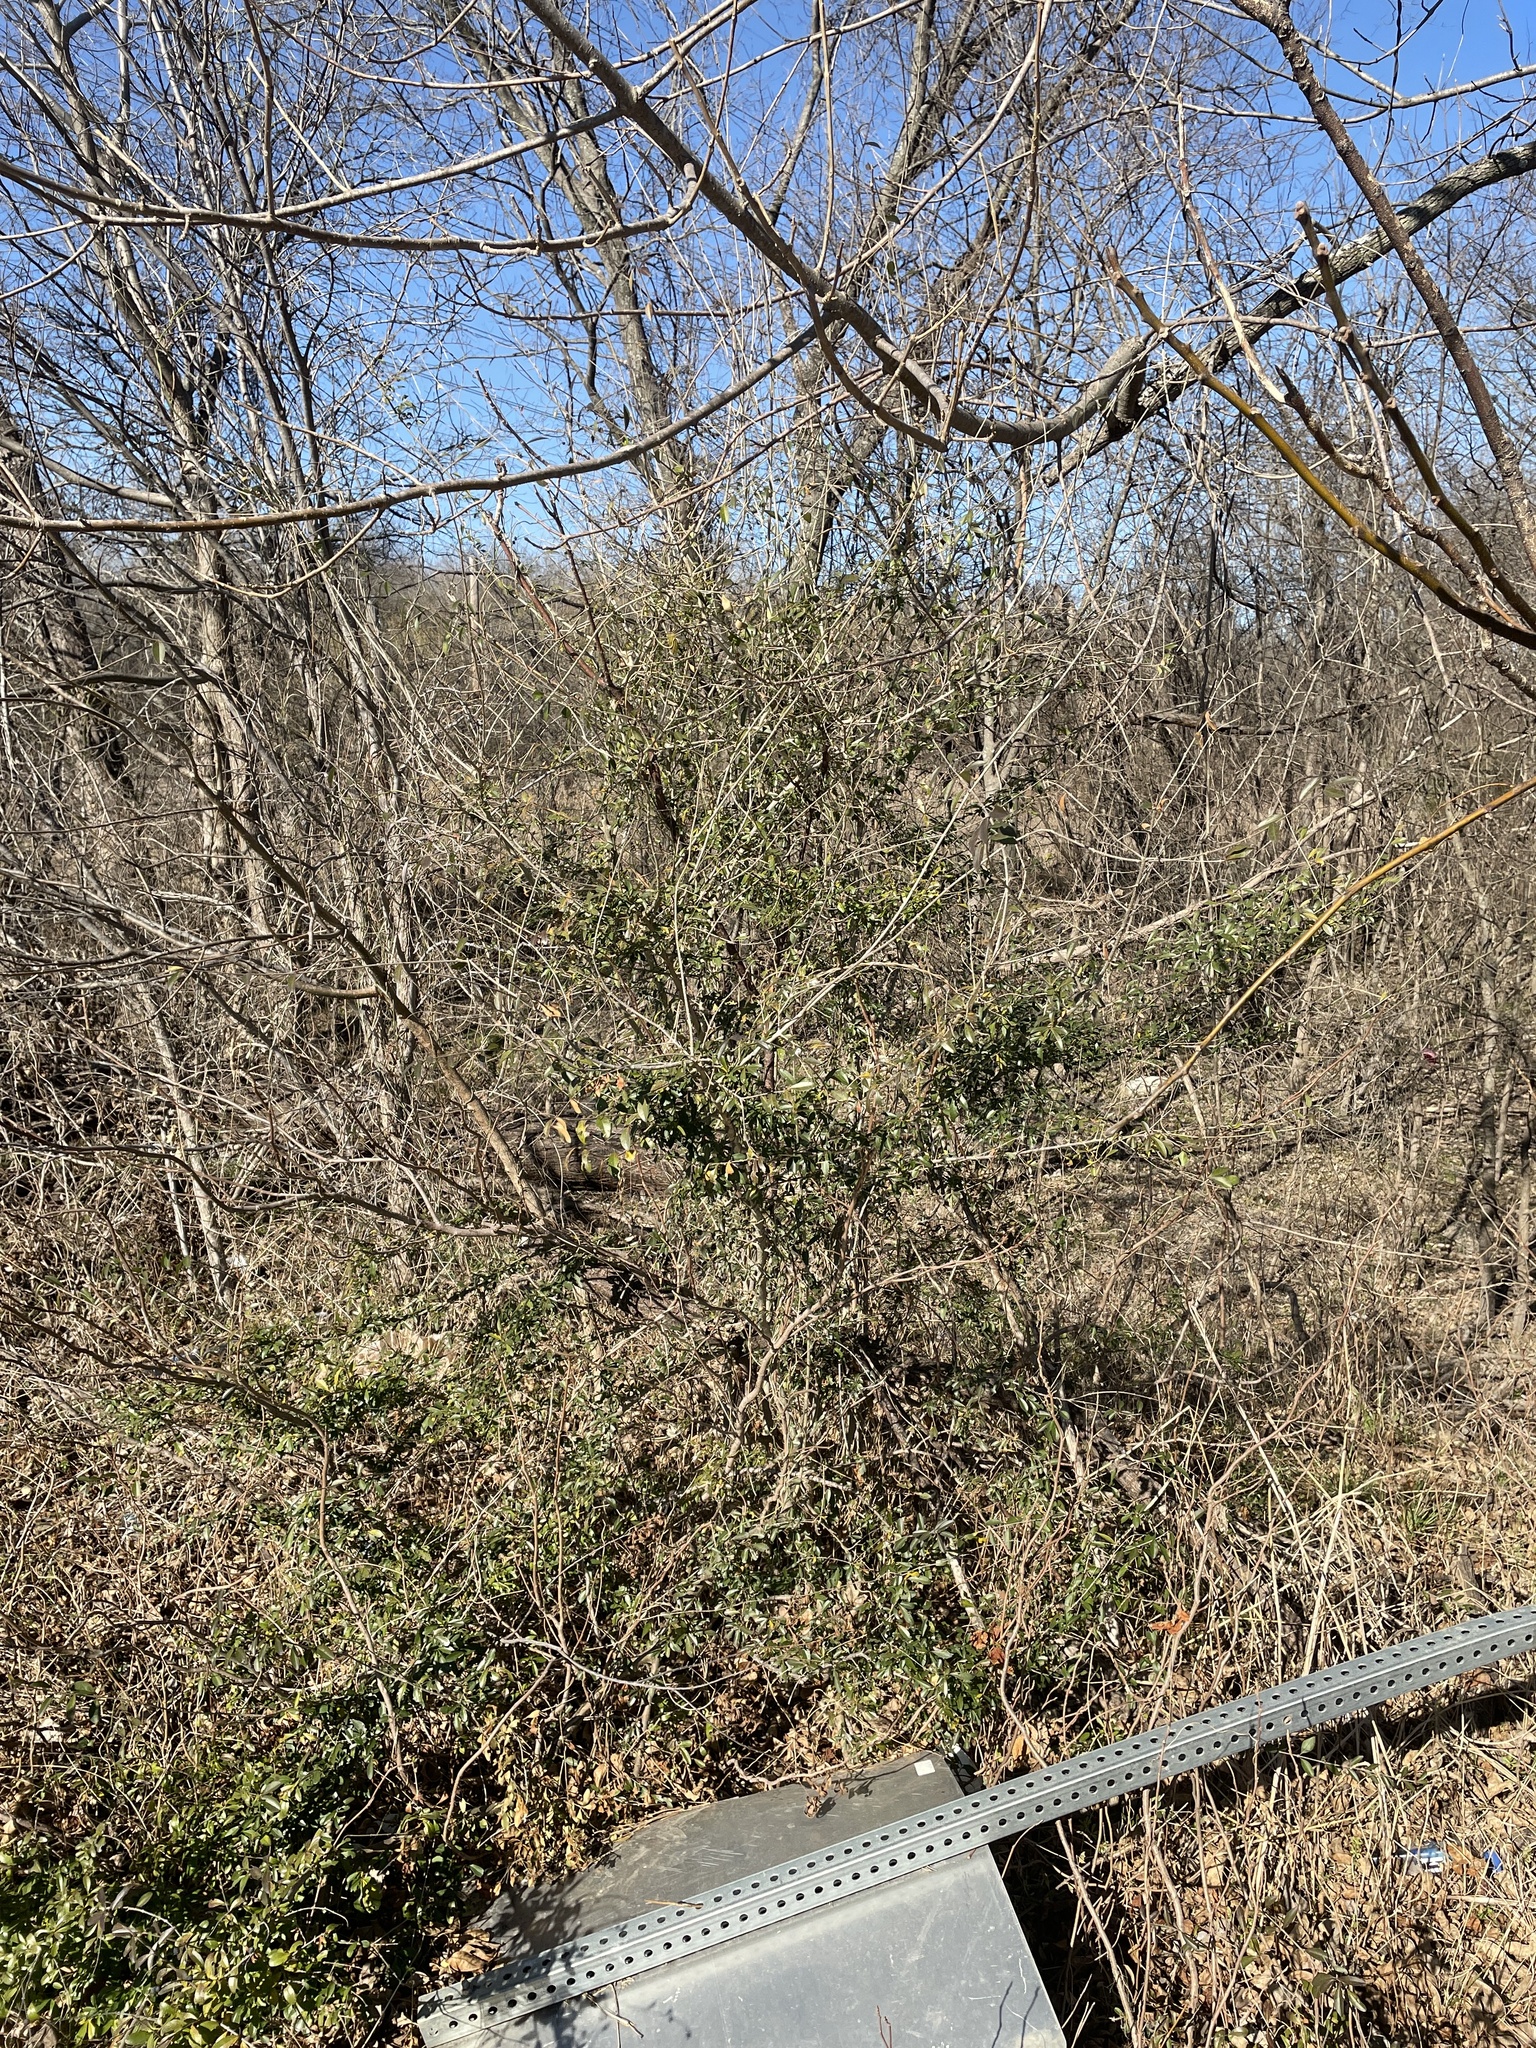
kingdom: Plantae
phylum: Tracheophyta
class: Magnoliopsida
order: Lamiales
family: Oleaceae
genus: Ligustrum
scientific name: Ligustrum quihoui
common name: Waxyleaf privet
